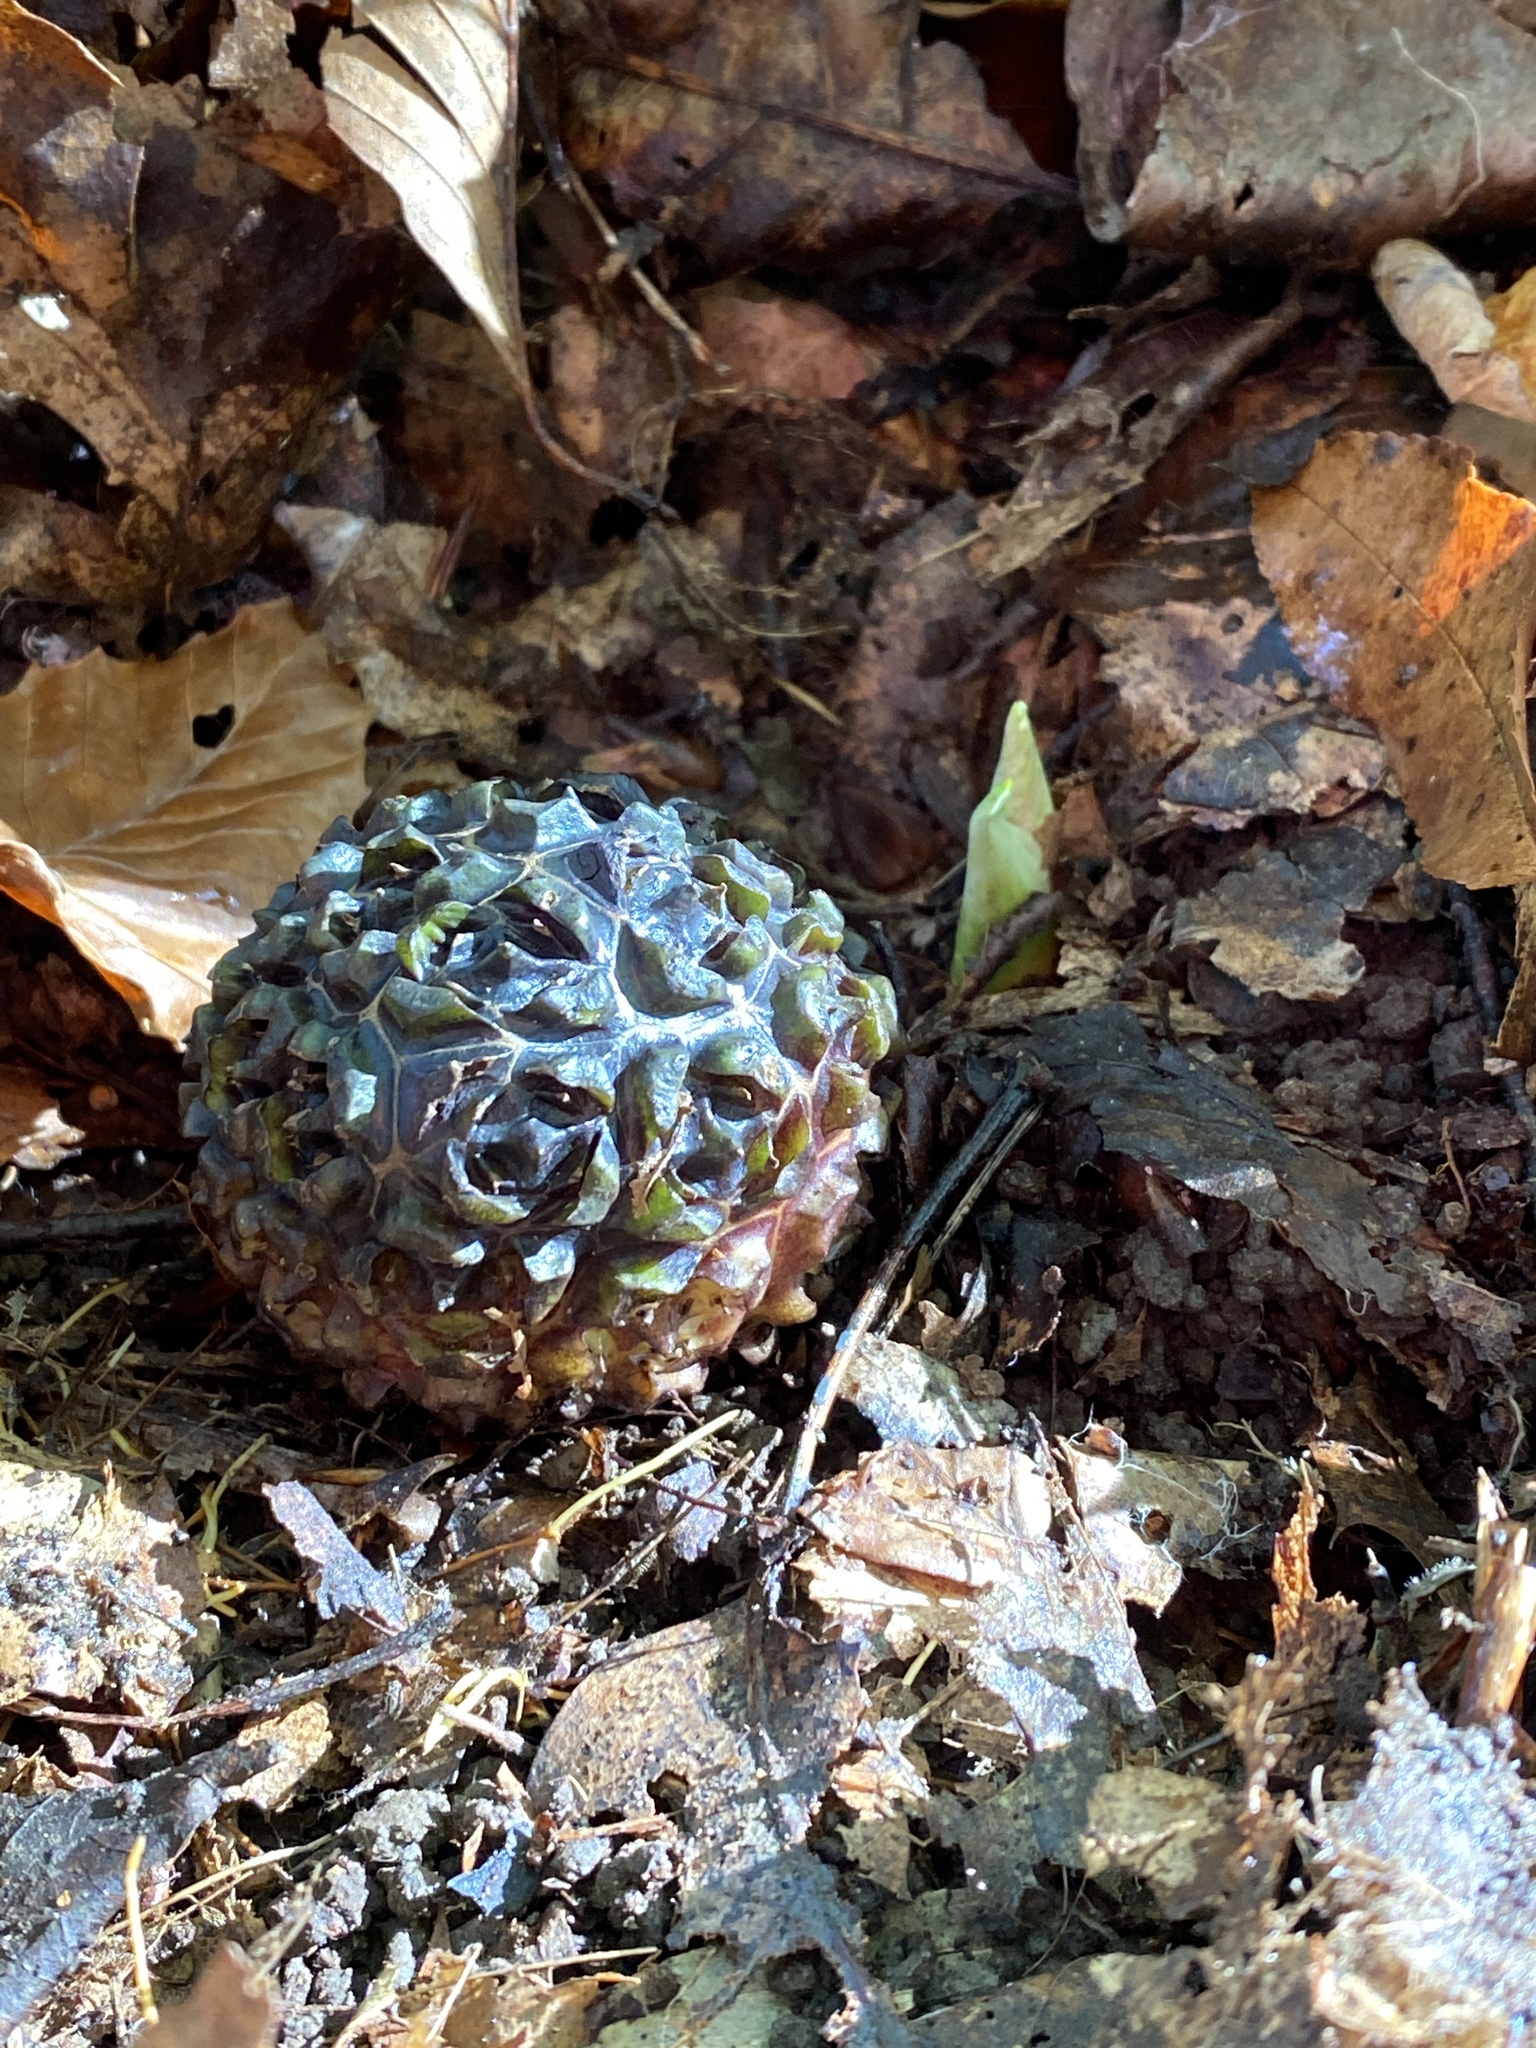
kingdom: Plantae
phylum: Tracheophyta
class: Liliopsida
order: Alismatales
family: Araceae
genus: Symplocarpus
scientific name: Symplocarpus foetidus
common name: Eastern skunk cabbage
